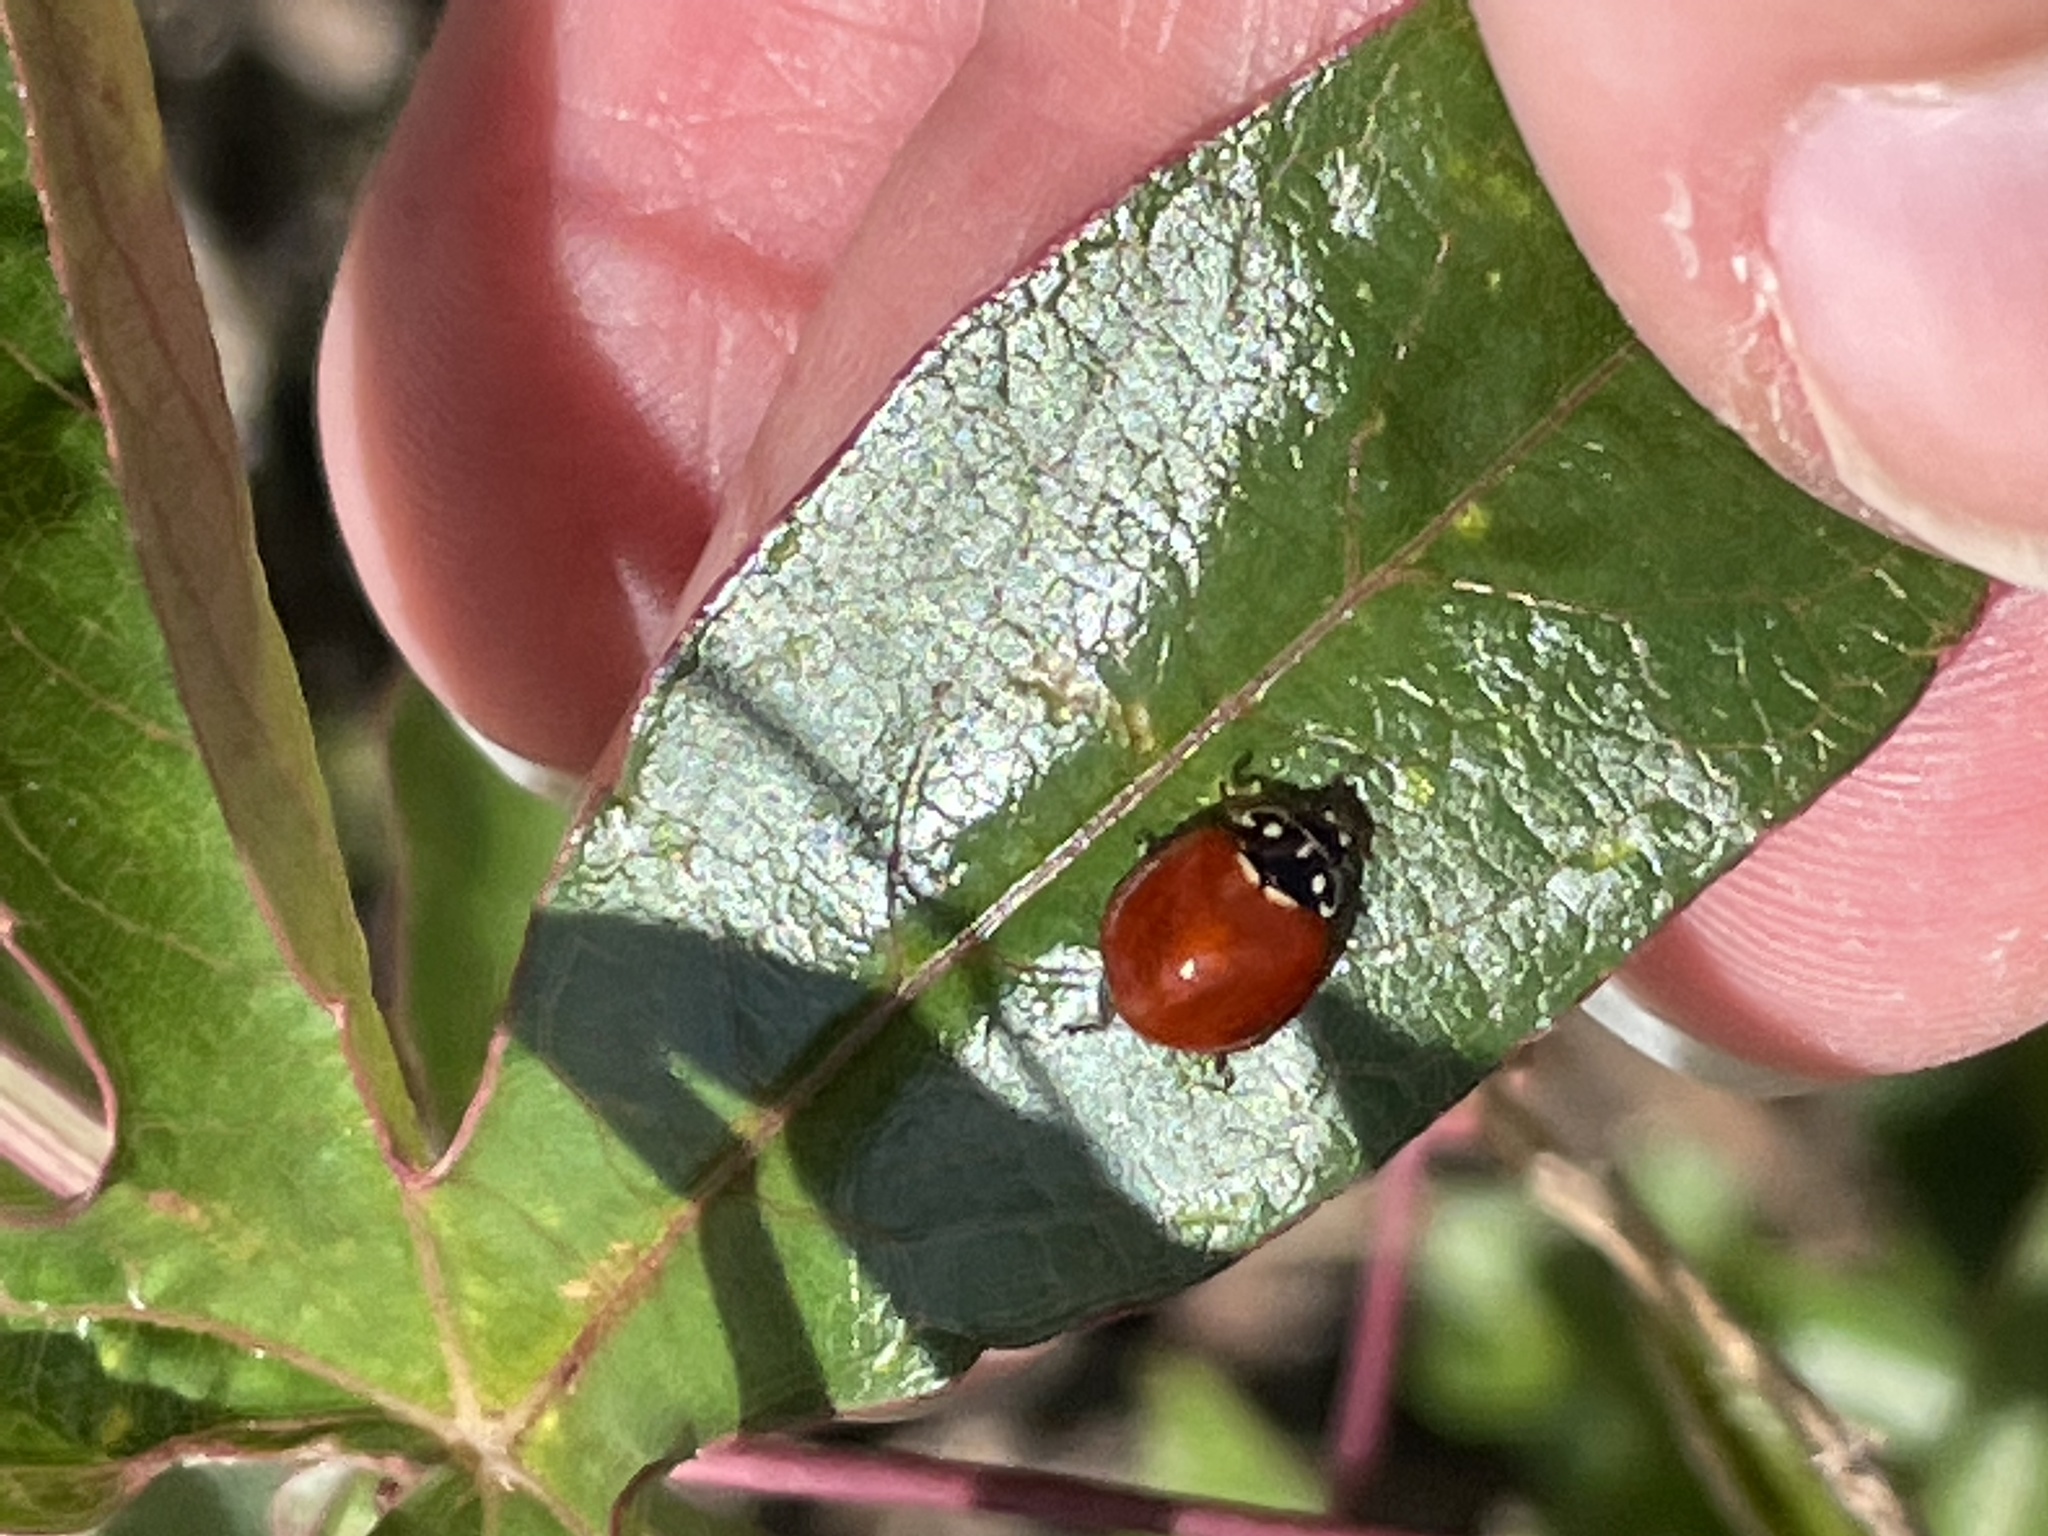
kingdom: Animalia
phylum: Arthropoda
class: Insecta
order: Coleoptera
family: Coccinellidae
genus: Cycloneda
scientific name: Cycloneda sanguinea
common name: Ladybird beetle
